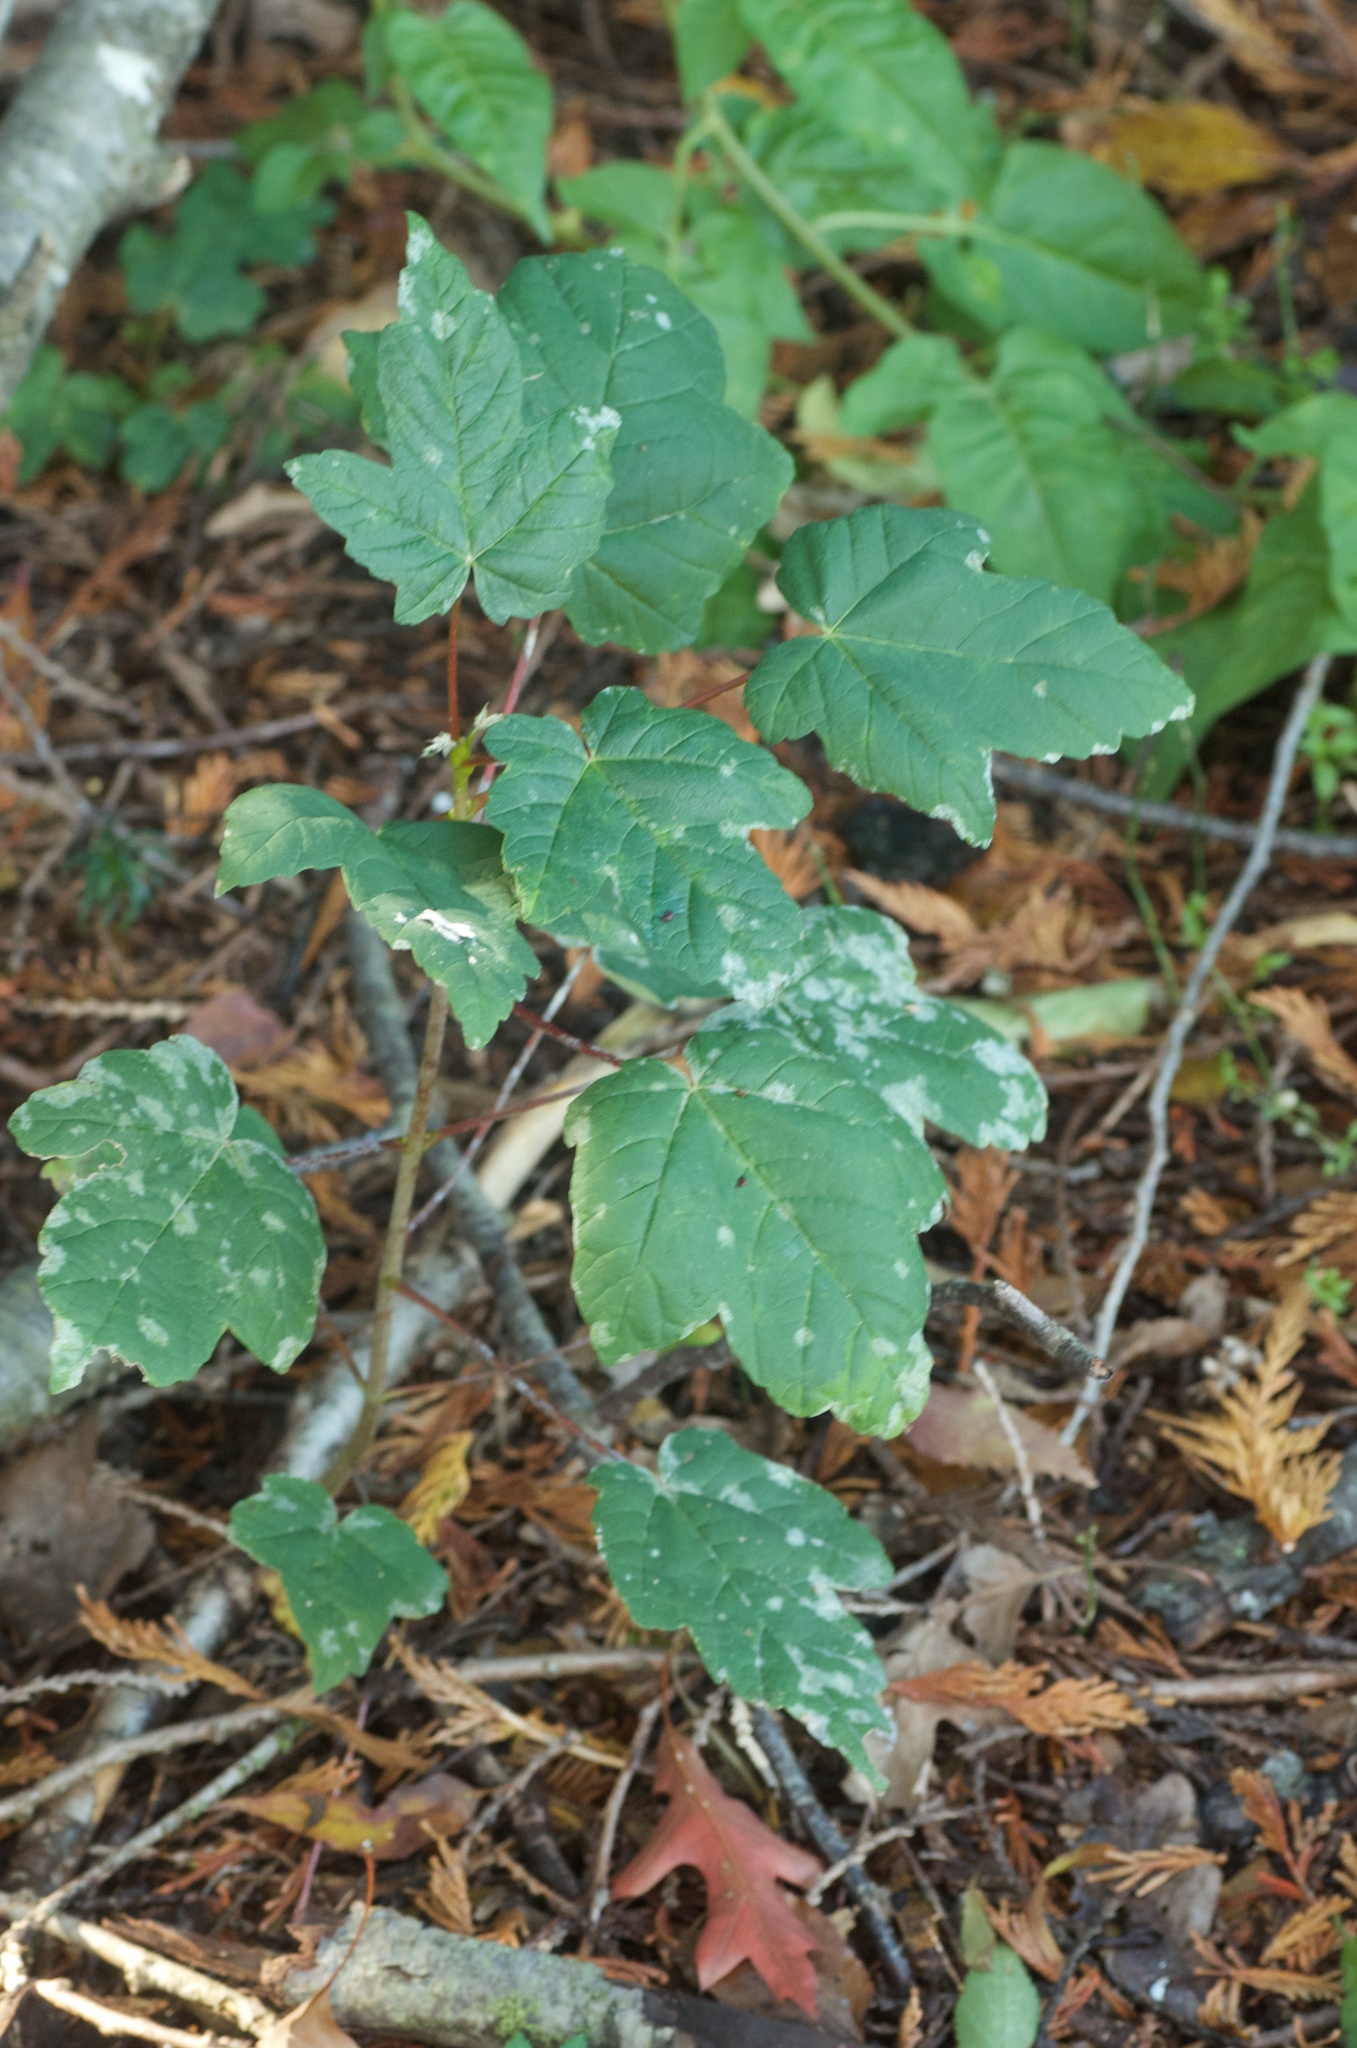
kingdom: Plantae
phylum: Tracheophyta
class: Magnoliopsida
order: Sapindales
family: Sapindaceae
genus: Acer
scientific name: Acer pseudoplatanus
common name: Sycamore
